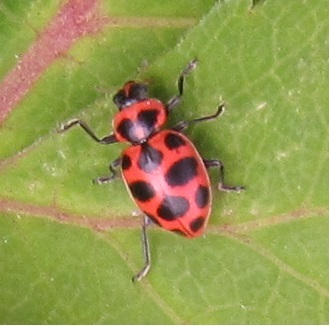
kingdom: Animalia
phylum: Arthropoda
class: Insecta
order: Coleoptera
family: Coccinellidae
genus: Coleomegilla
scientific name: Coleomegilla maculata
